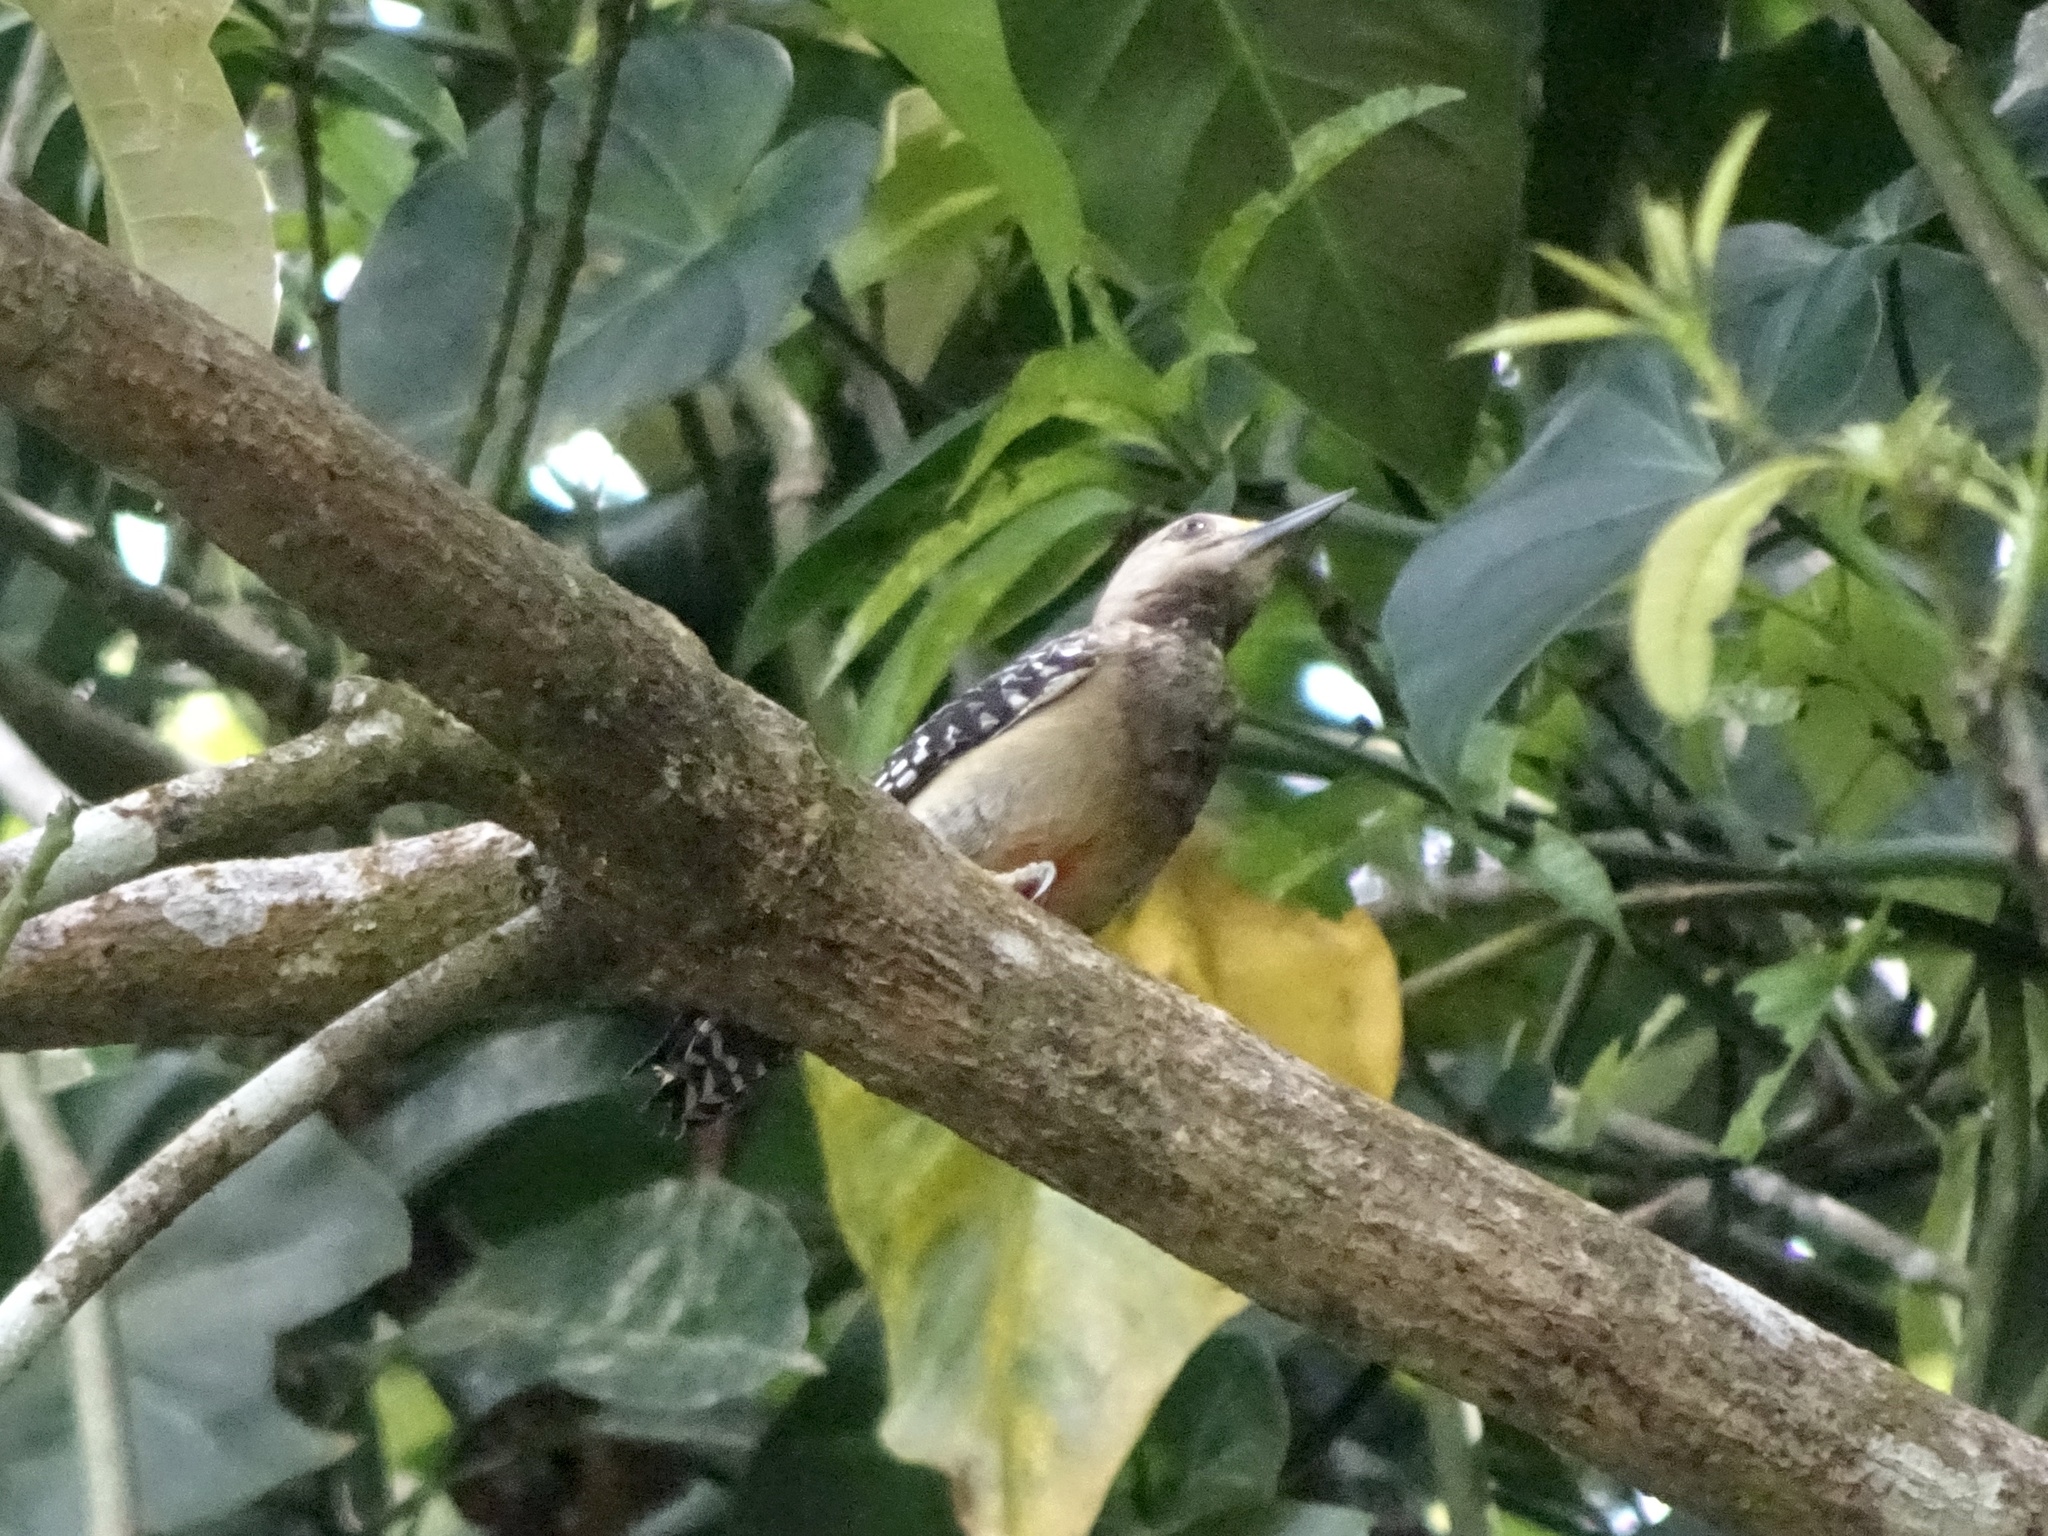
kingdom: Animalia
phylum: Chordata
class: Aves
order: Piciformes
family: Picidae
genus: Melanerpes
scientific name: Melanerpes rubricapillus
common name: Red-crowned woodpecker
